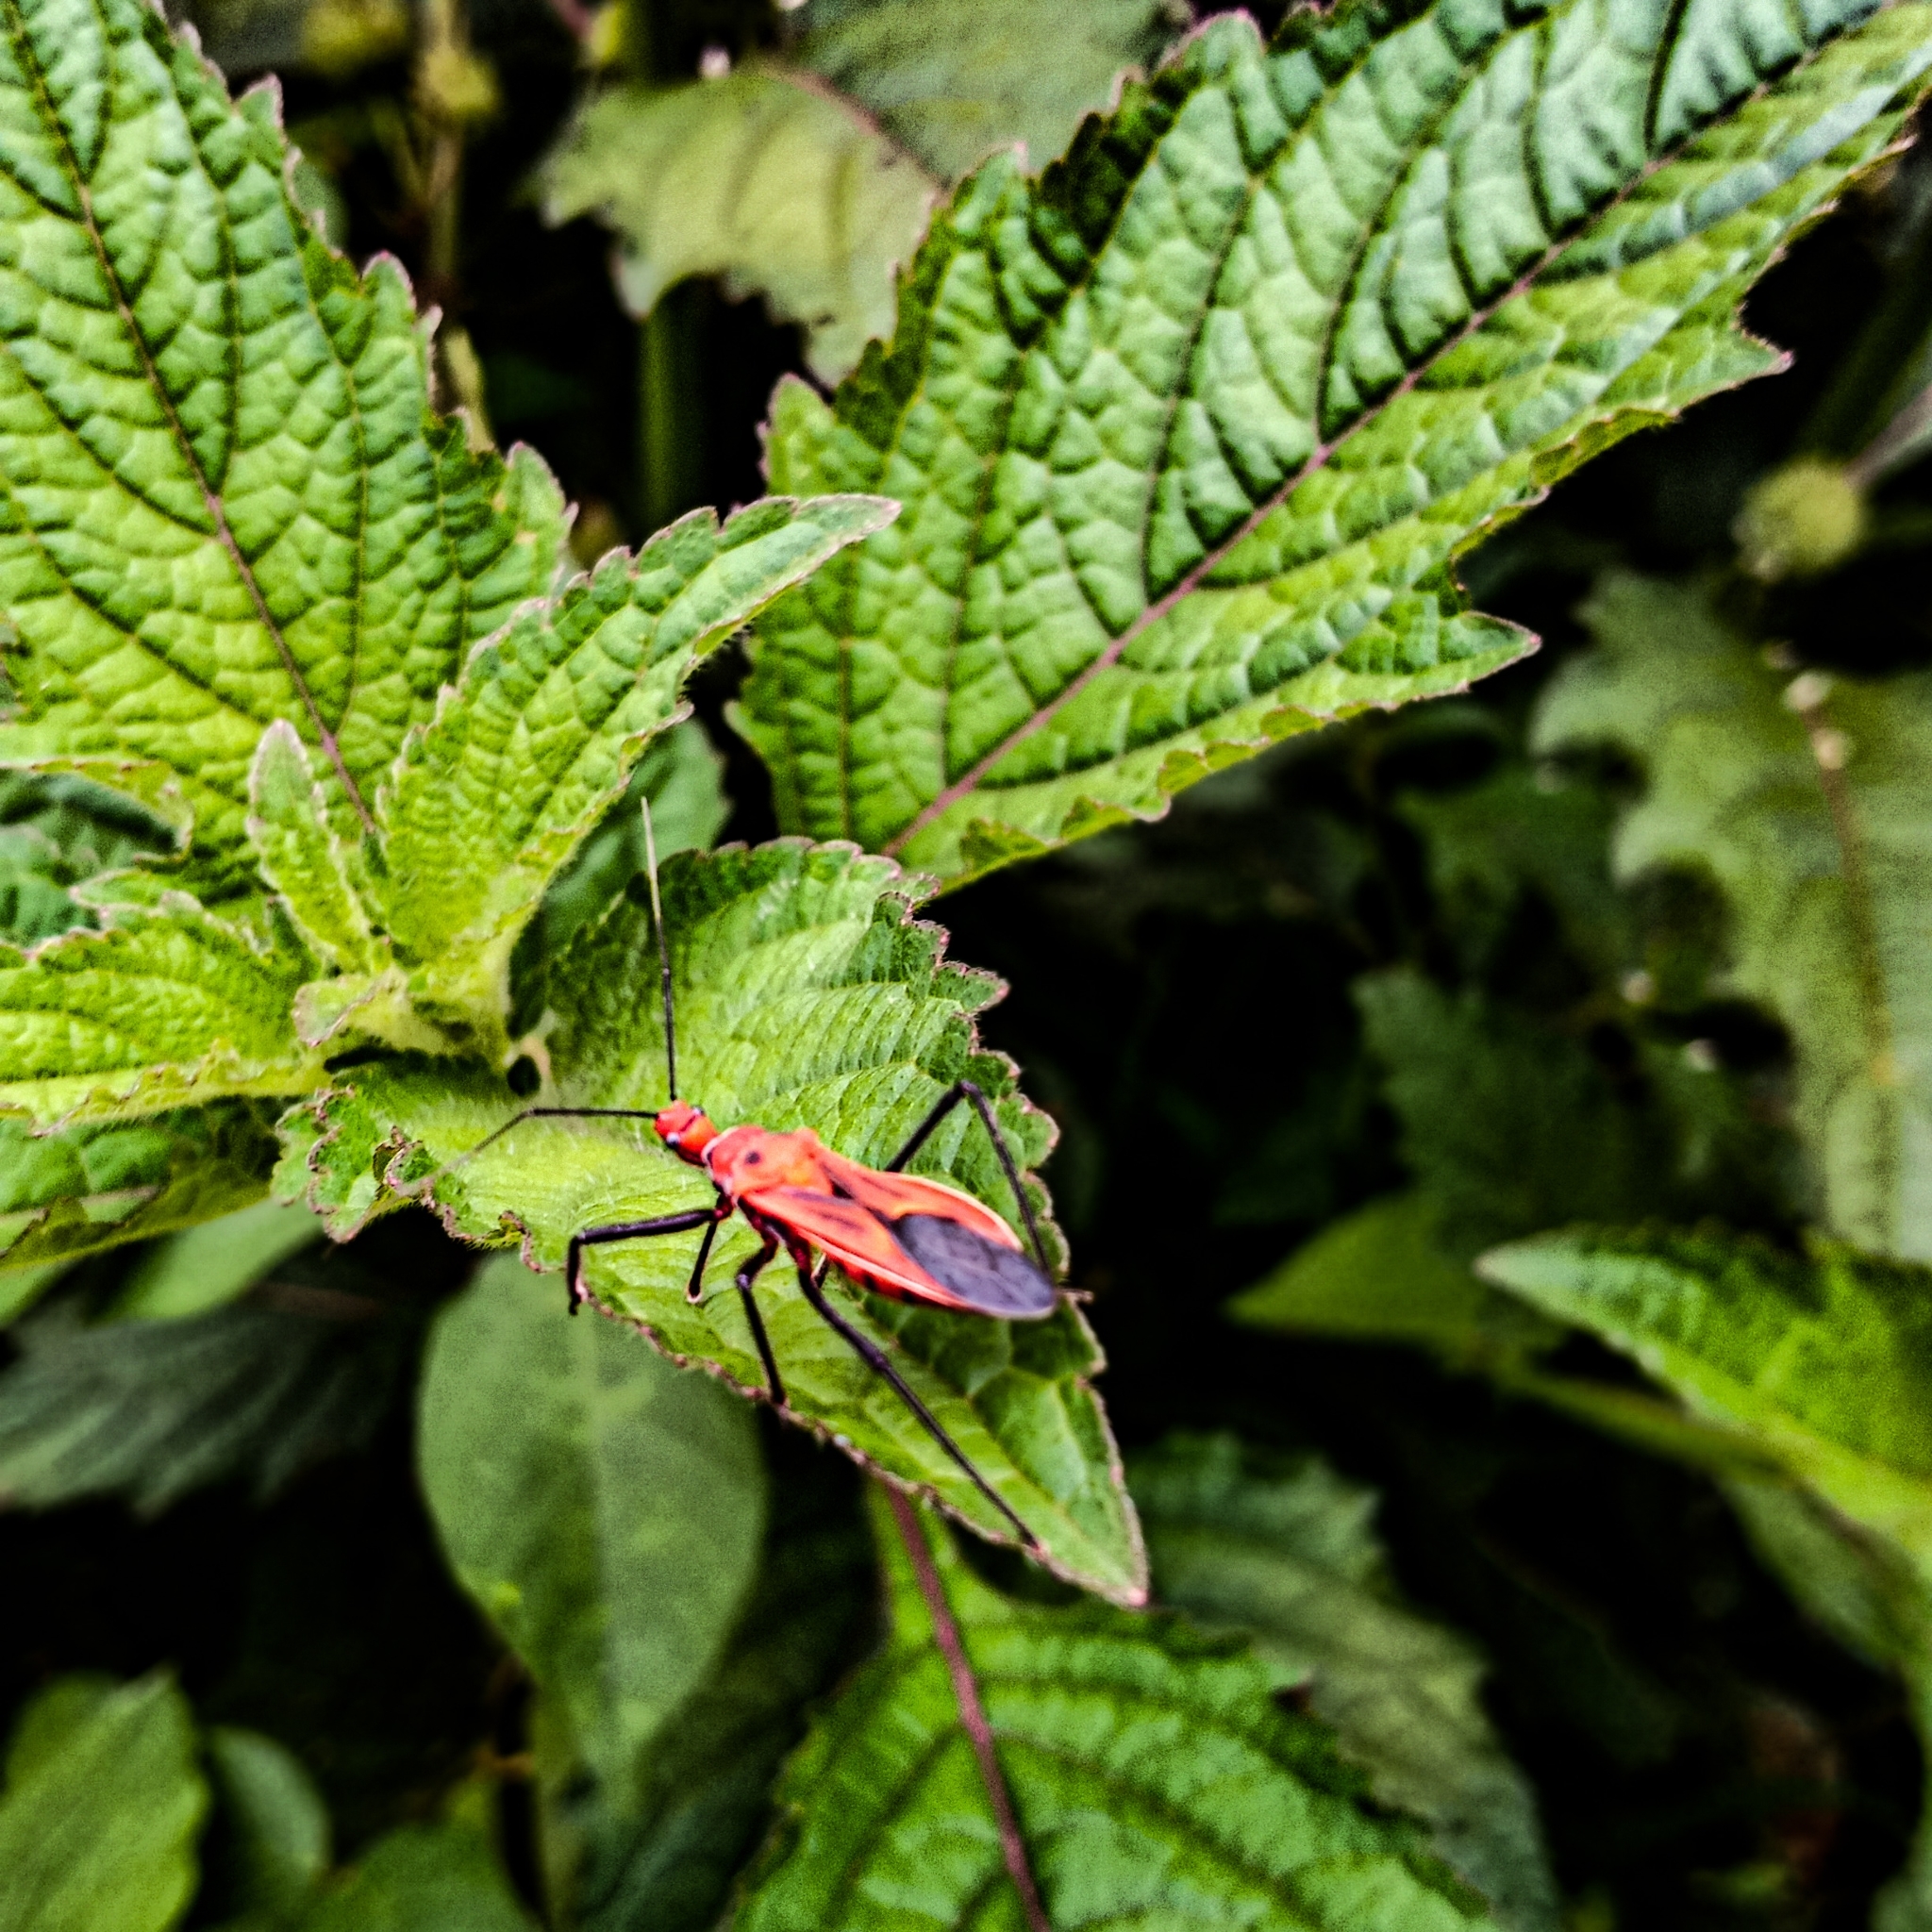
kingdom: Animalia
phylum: Arthropoda
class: Insecta
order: Hemiptera
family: Pyrrhocoridae
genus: Dysdercus
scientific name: Dysdercus poecilus
